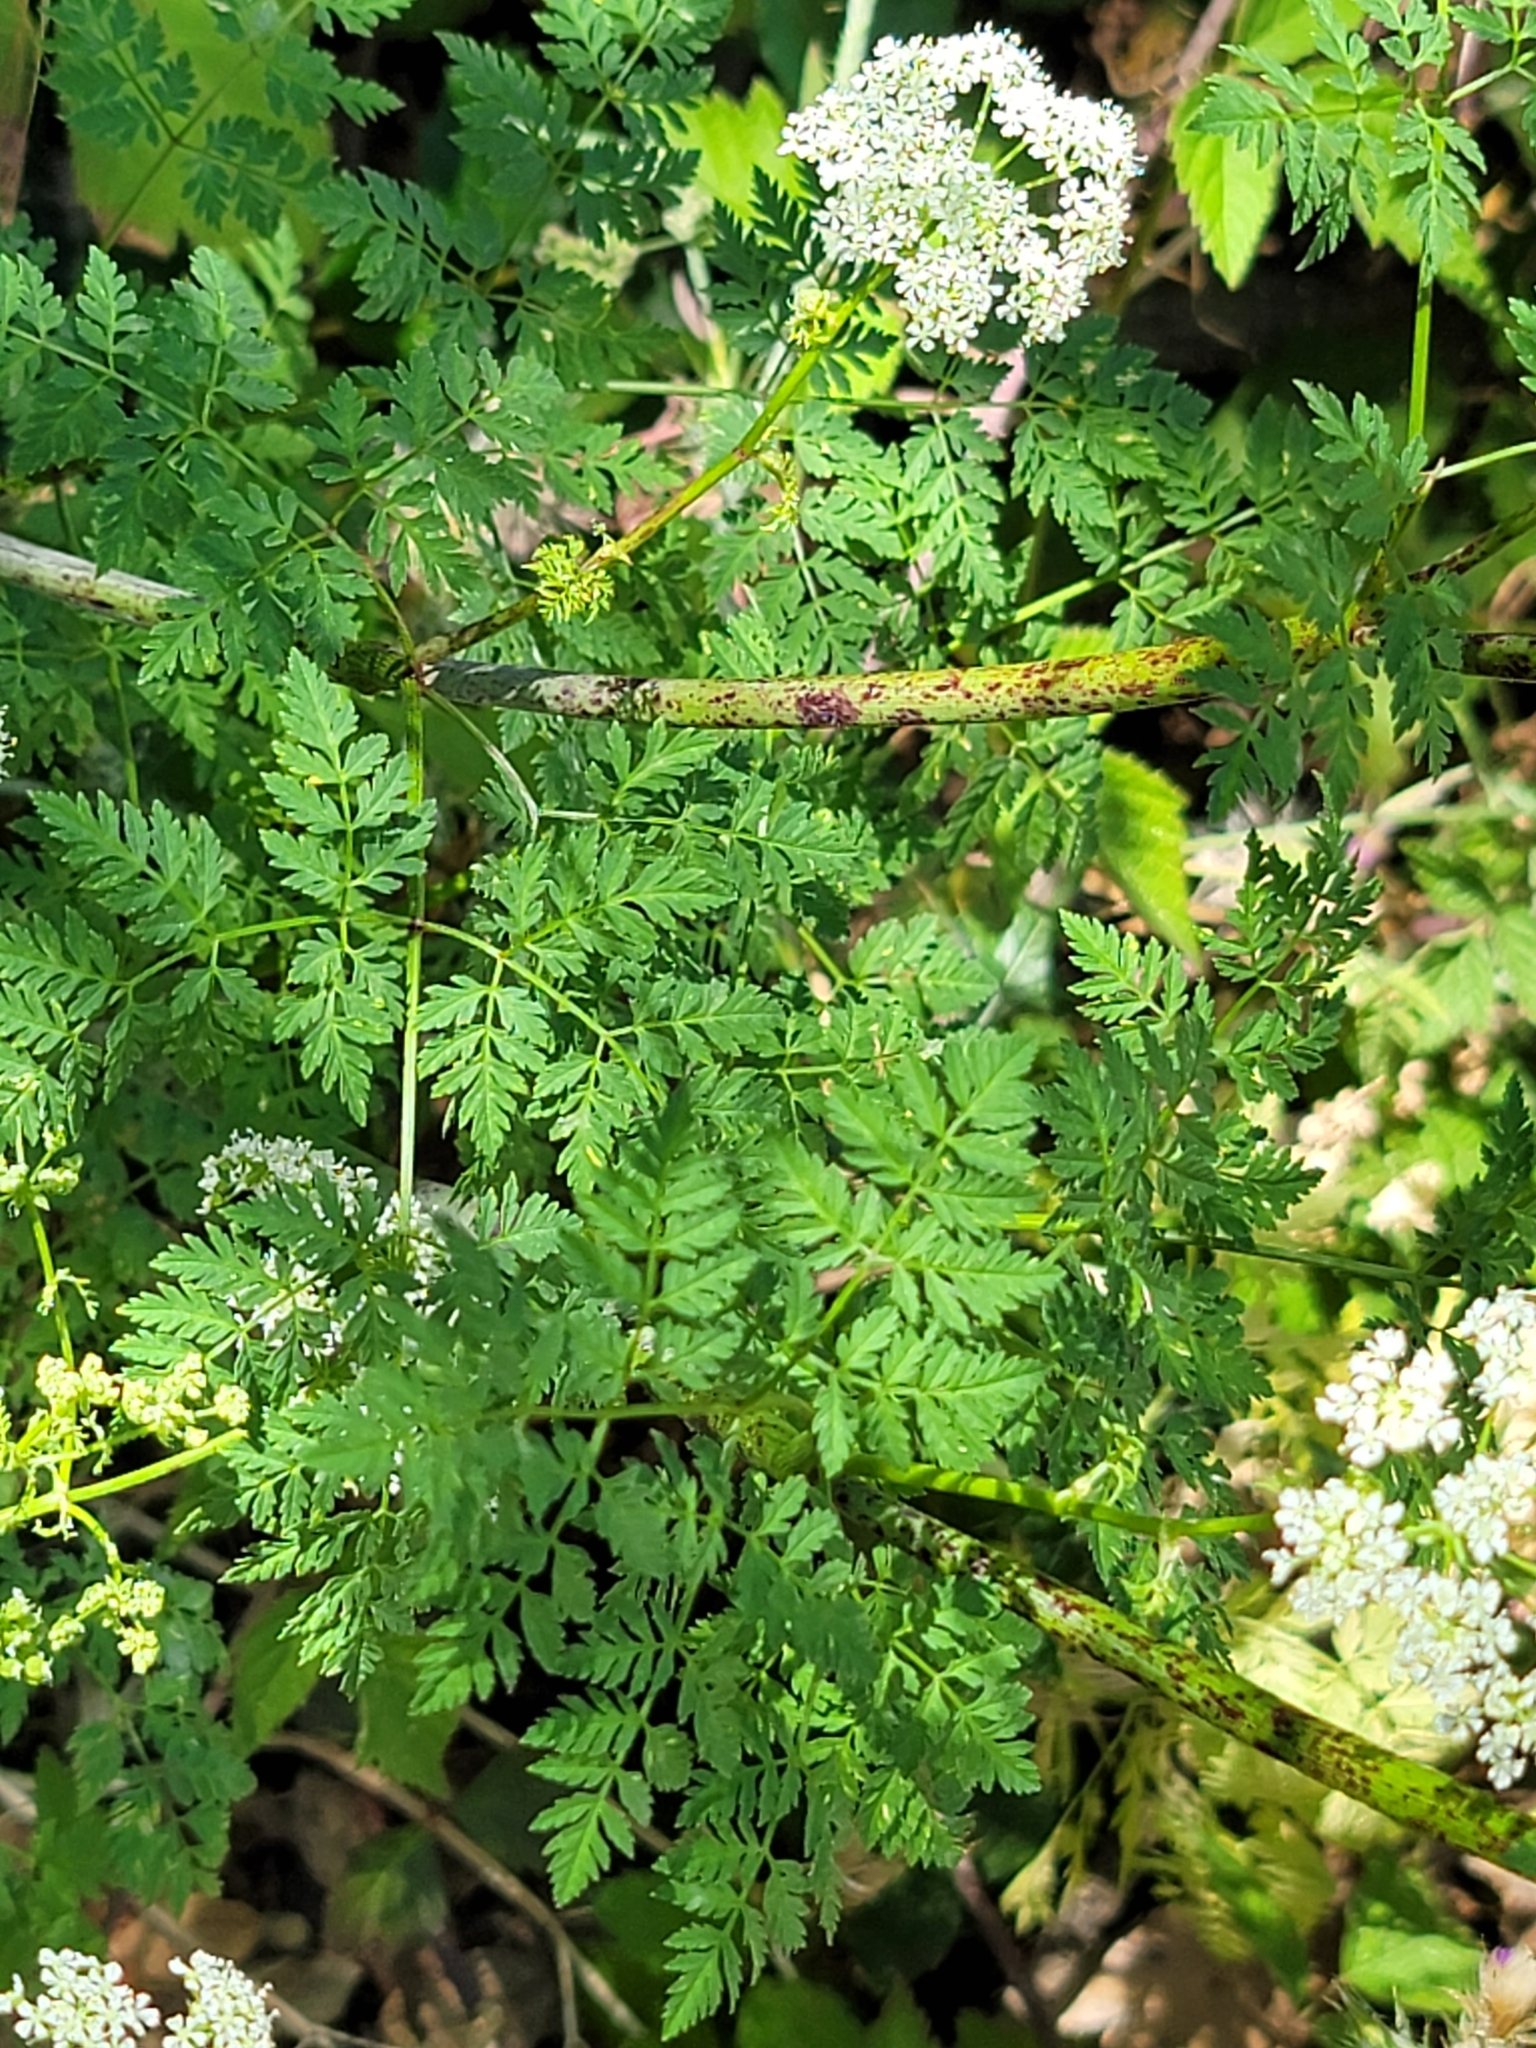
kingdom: Plantae
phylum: Tracheophyta
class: Magnoliopsida
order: Apiales
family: Apiaceae
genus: Conium
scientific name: Conium maculatum
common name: Hemlock
